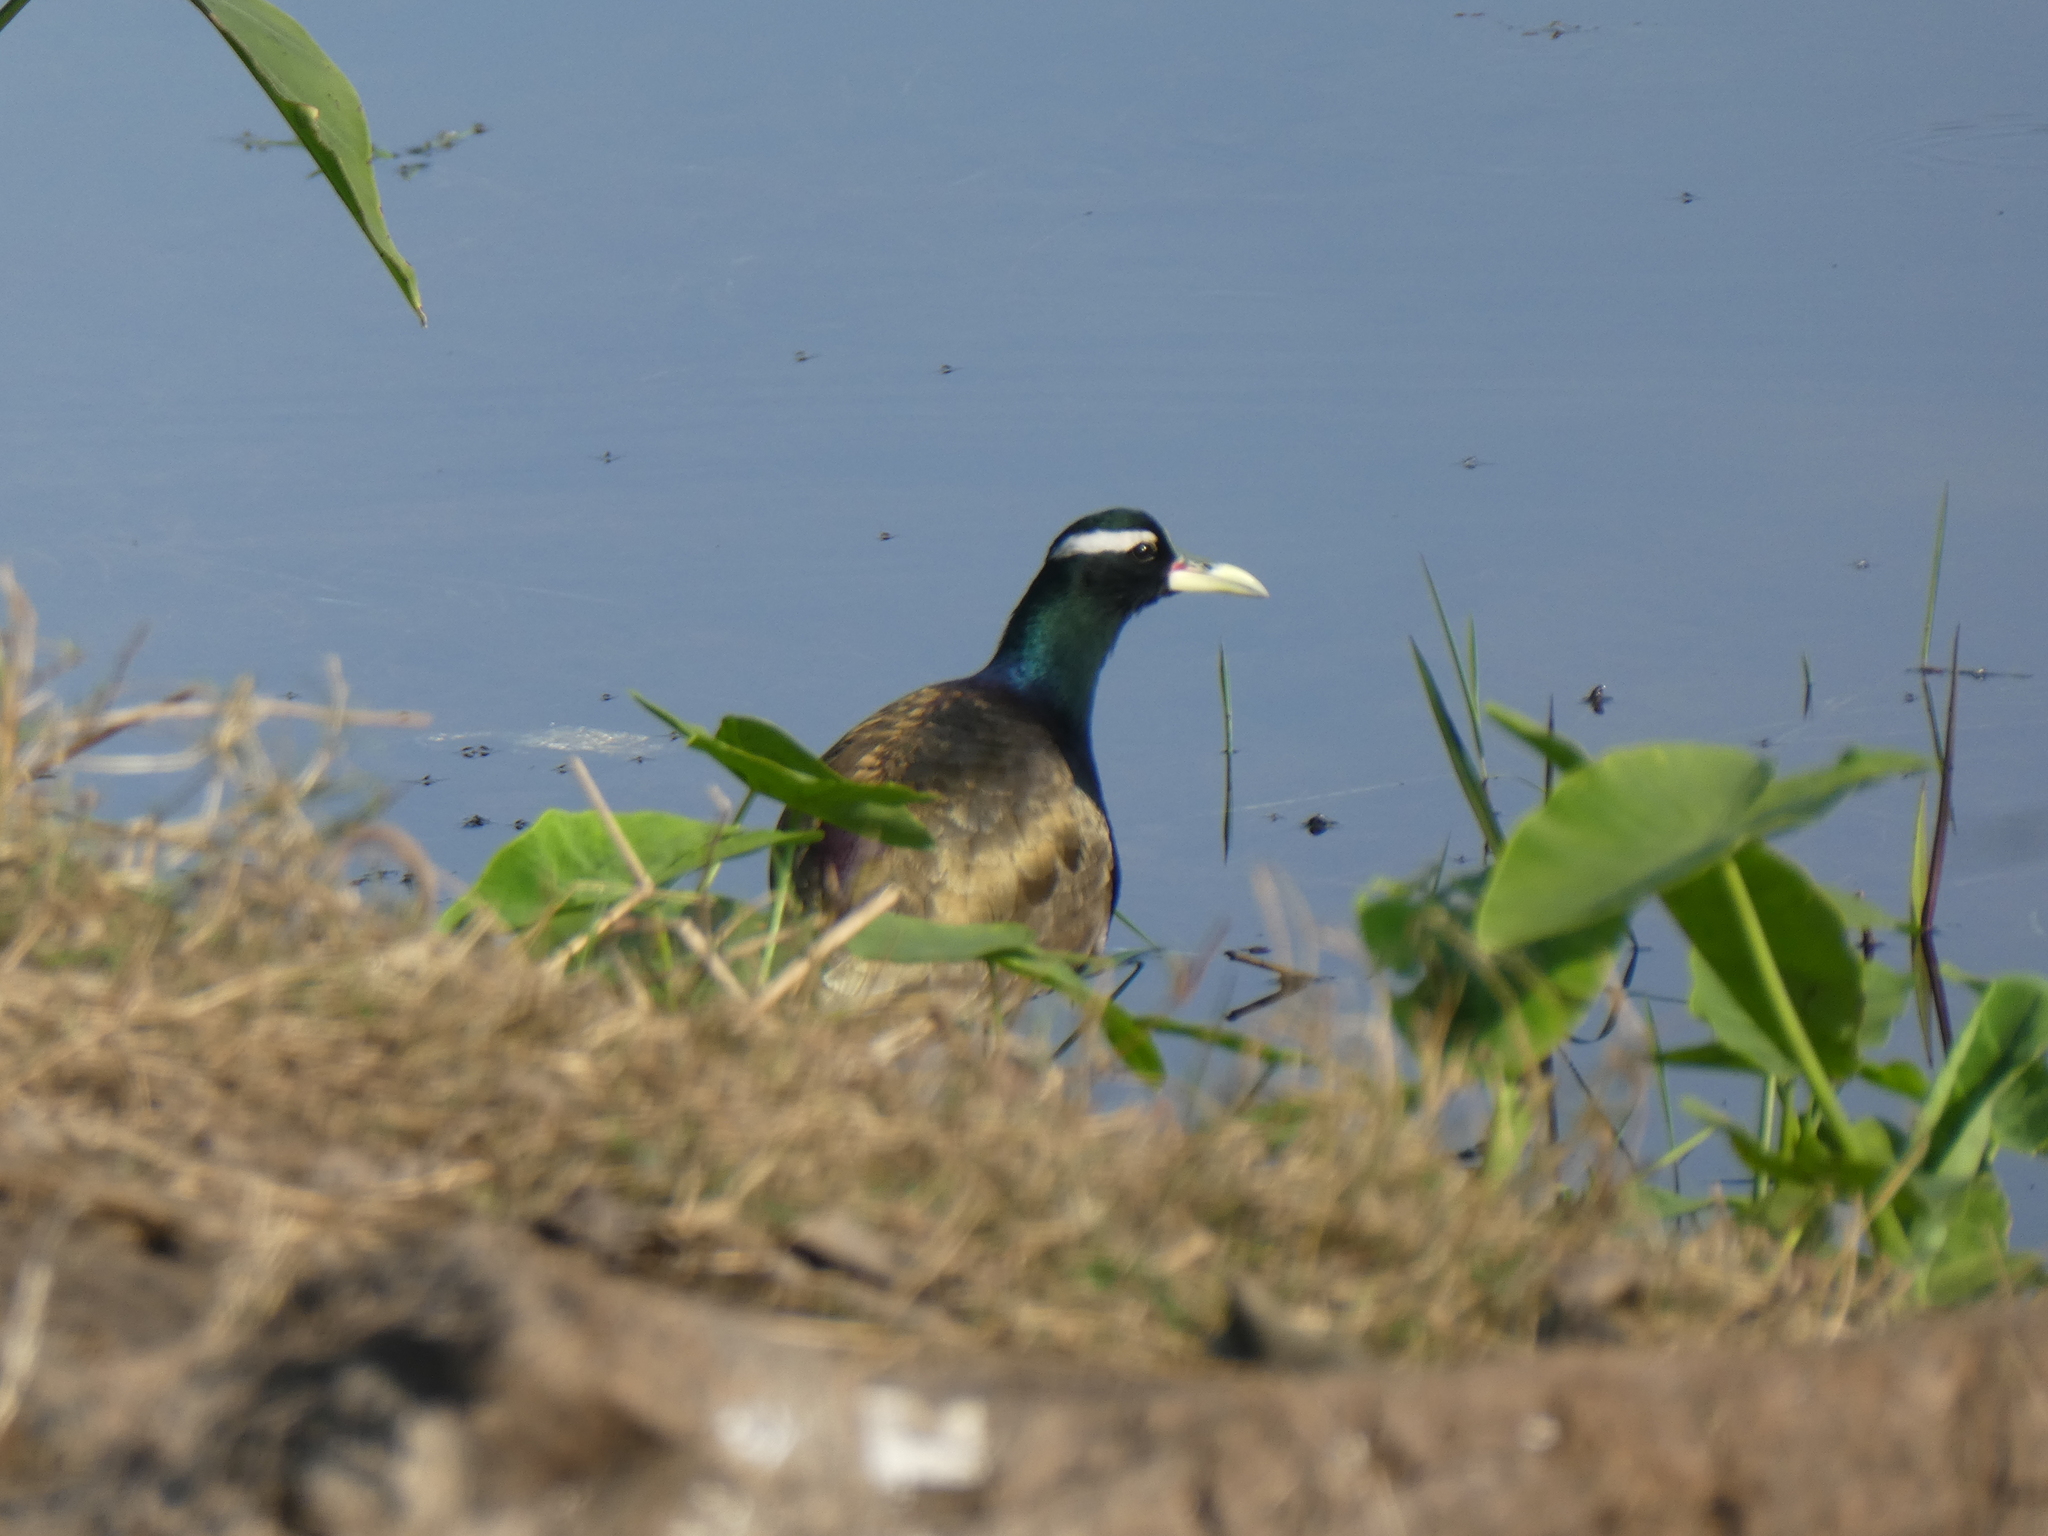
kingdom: Animalia
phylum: Chordata
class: Aves
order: Charadriiformes
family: Jacanidae
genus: Metopidius
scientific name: Metopidius indicus
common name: Bronze-winged jacana
